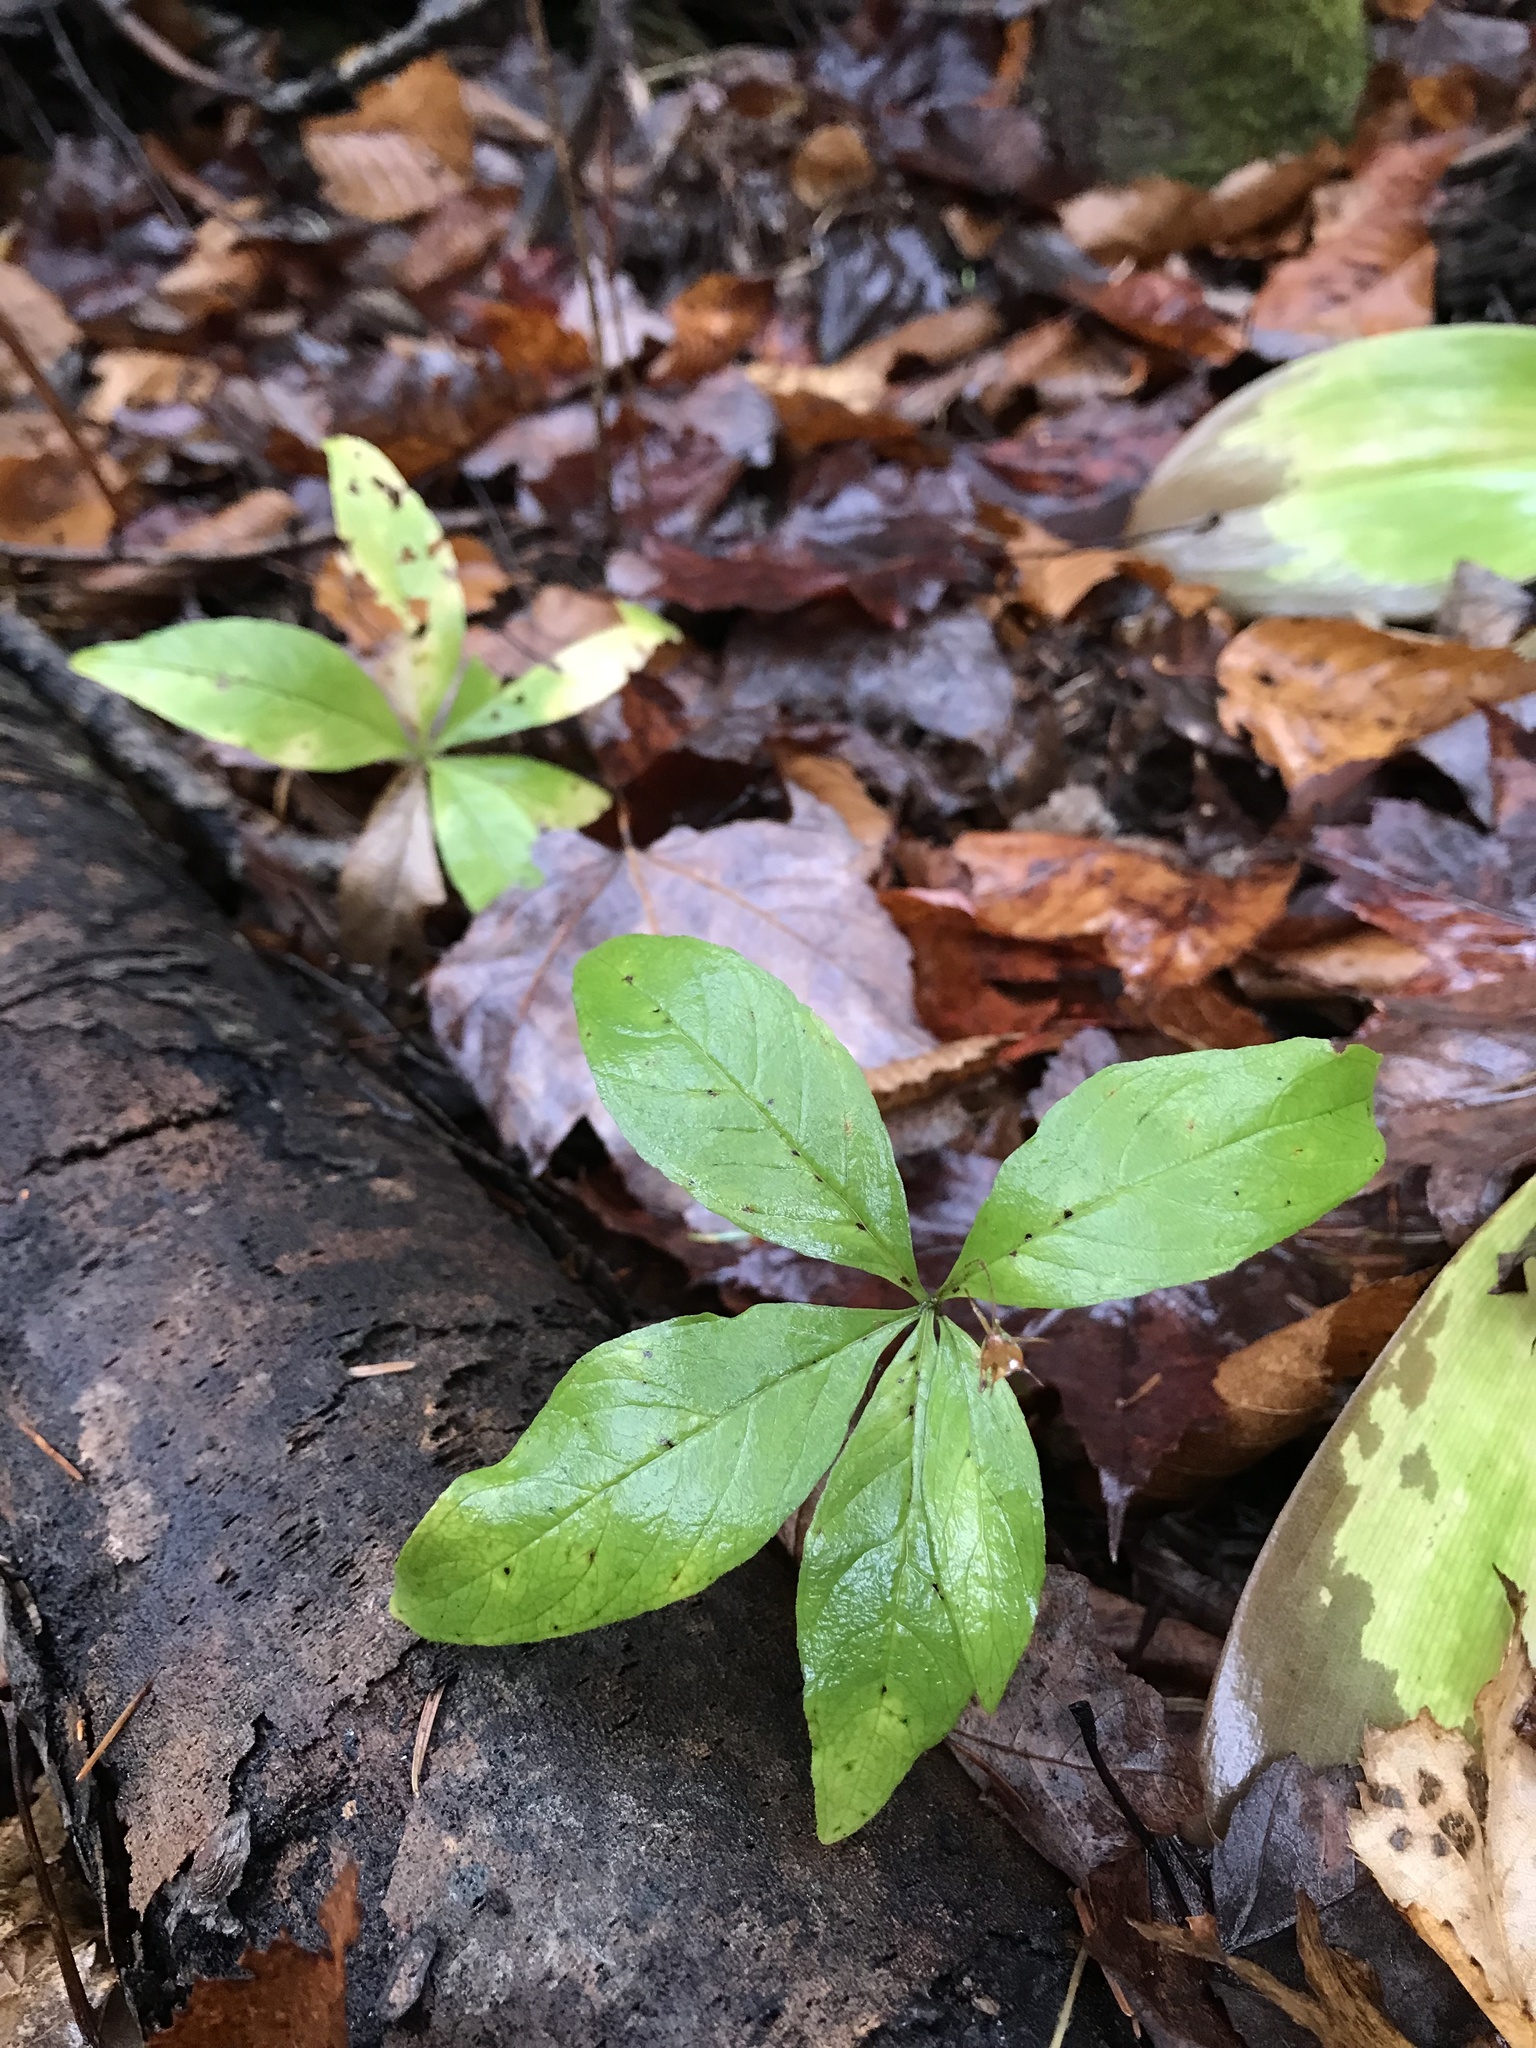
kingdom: Plantae
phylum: Tracheophyta
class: Magnoliopsida
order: Ericales
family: Primulaceae
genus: Lysimachia
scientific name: Lysimachia borealis
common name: American starflower
